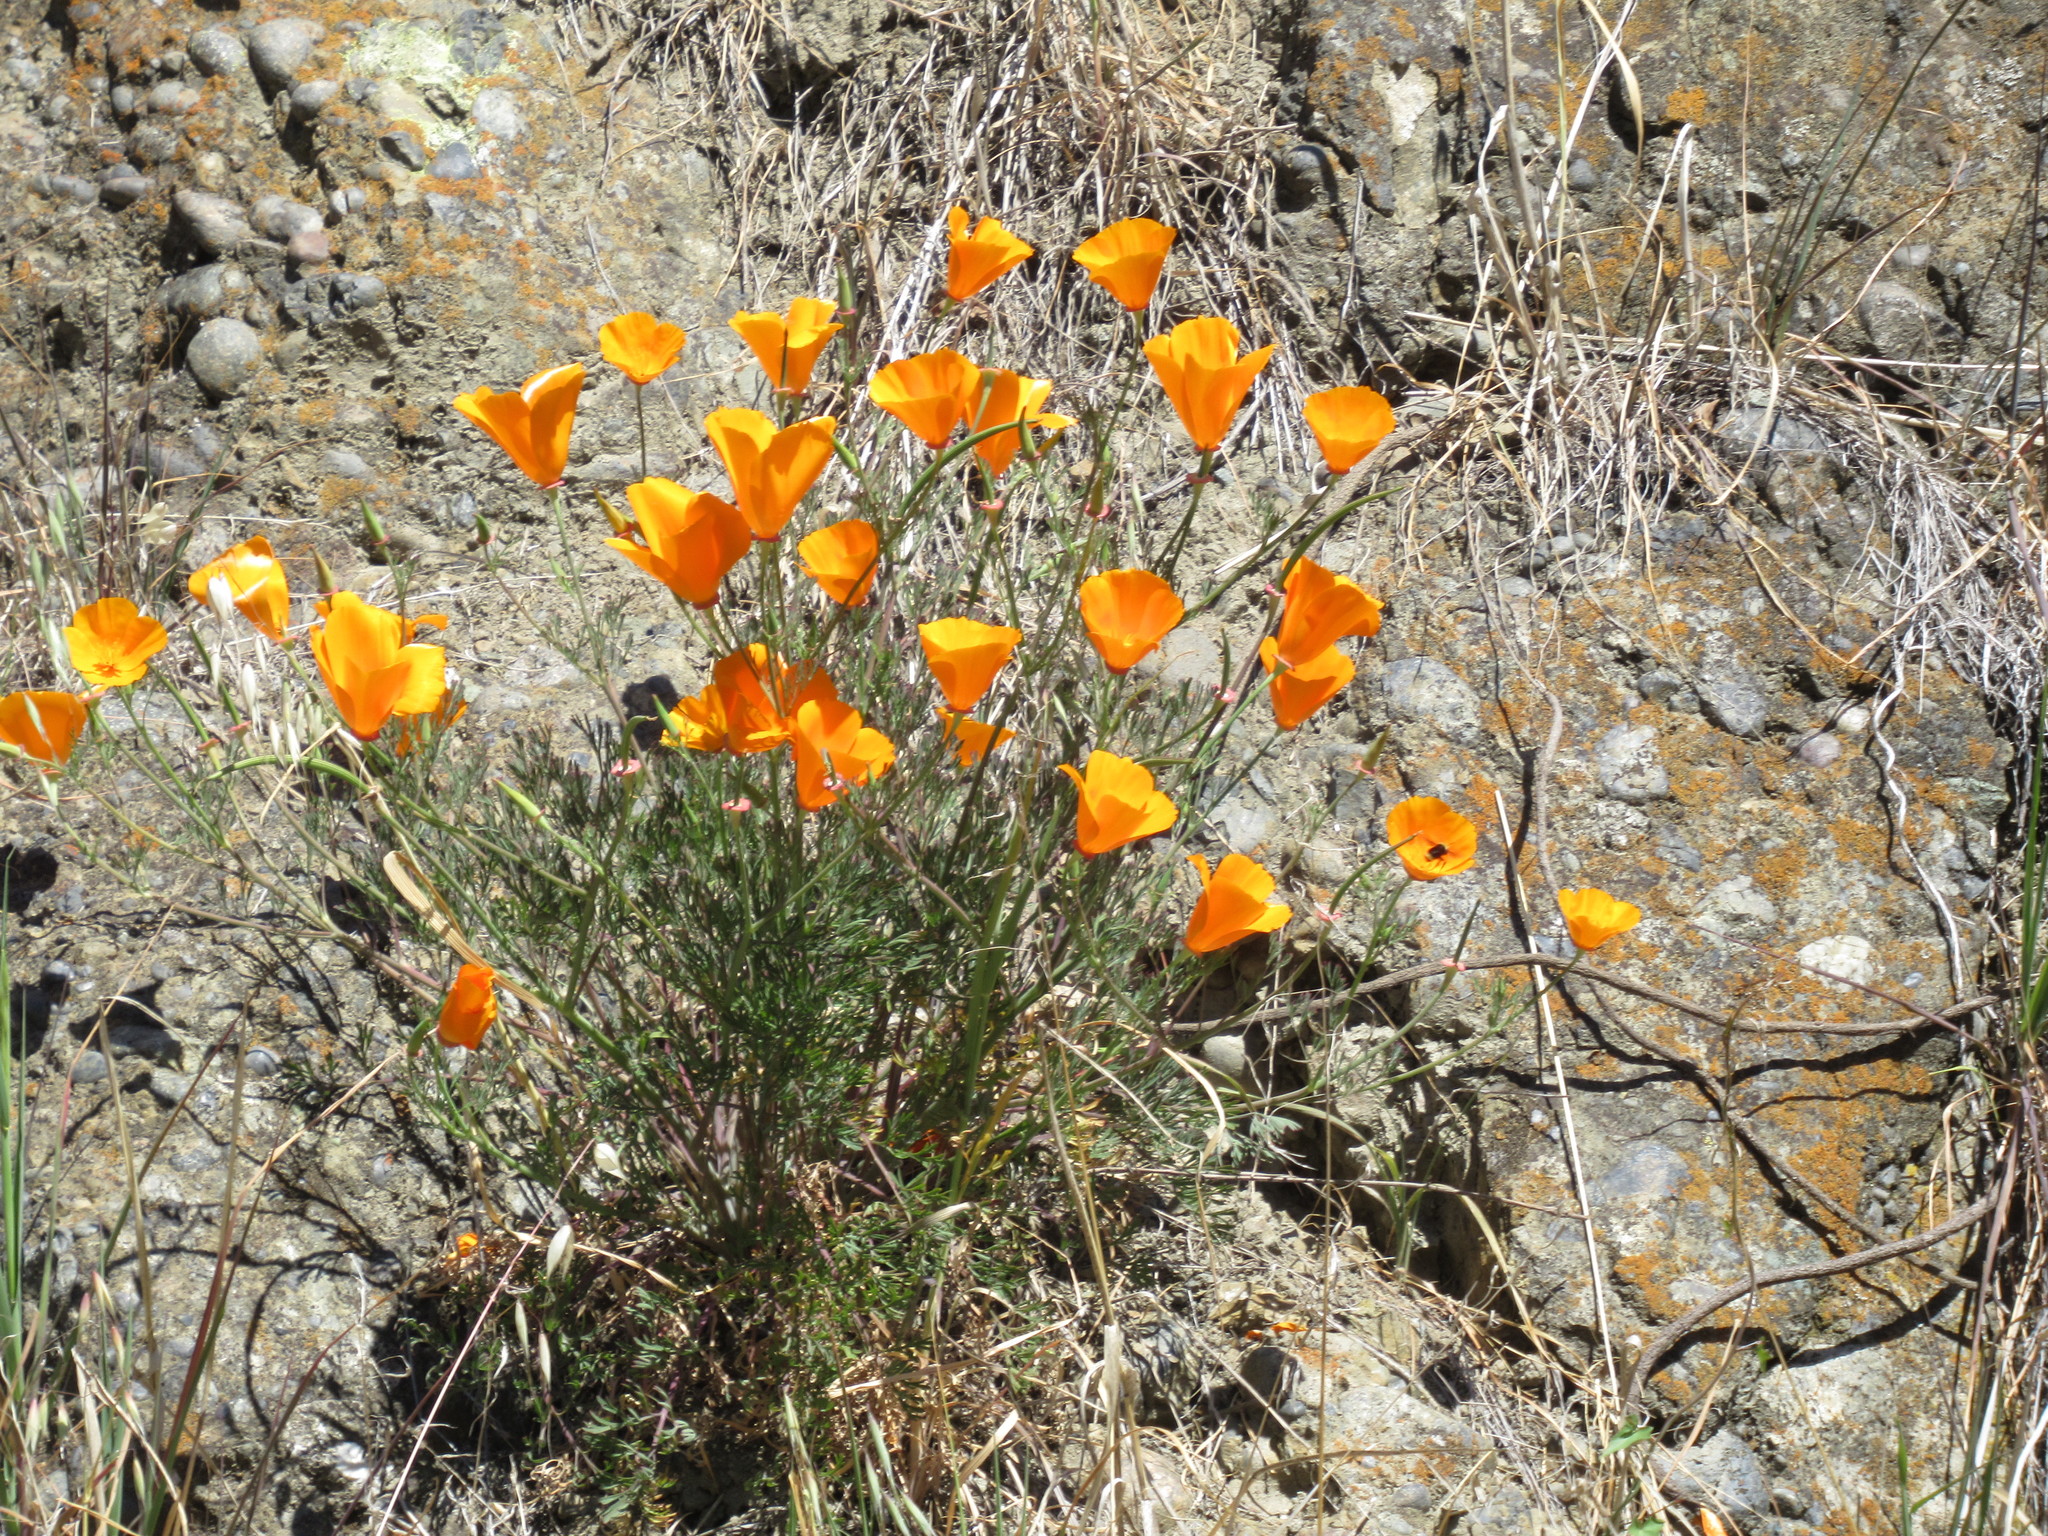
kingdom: Plantae
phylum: Tracheophyta
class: Magnoliopsida
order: Ranunculales
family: Papaveraceae
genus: Eschscholzia
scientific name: Eschscholzia californica
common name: California poppy
